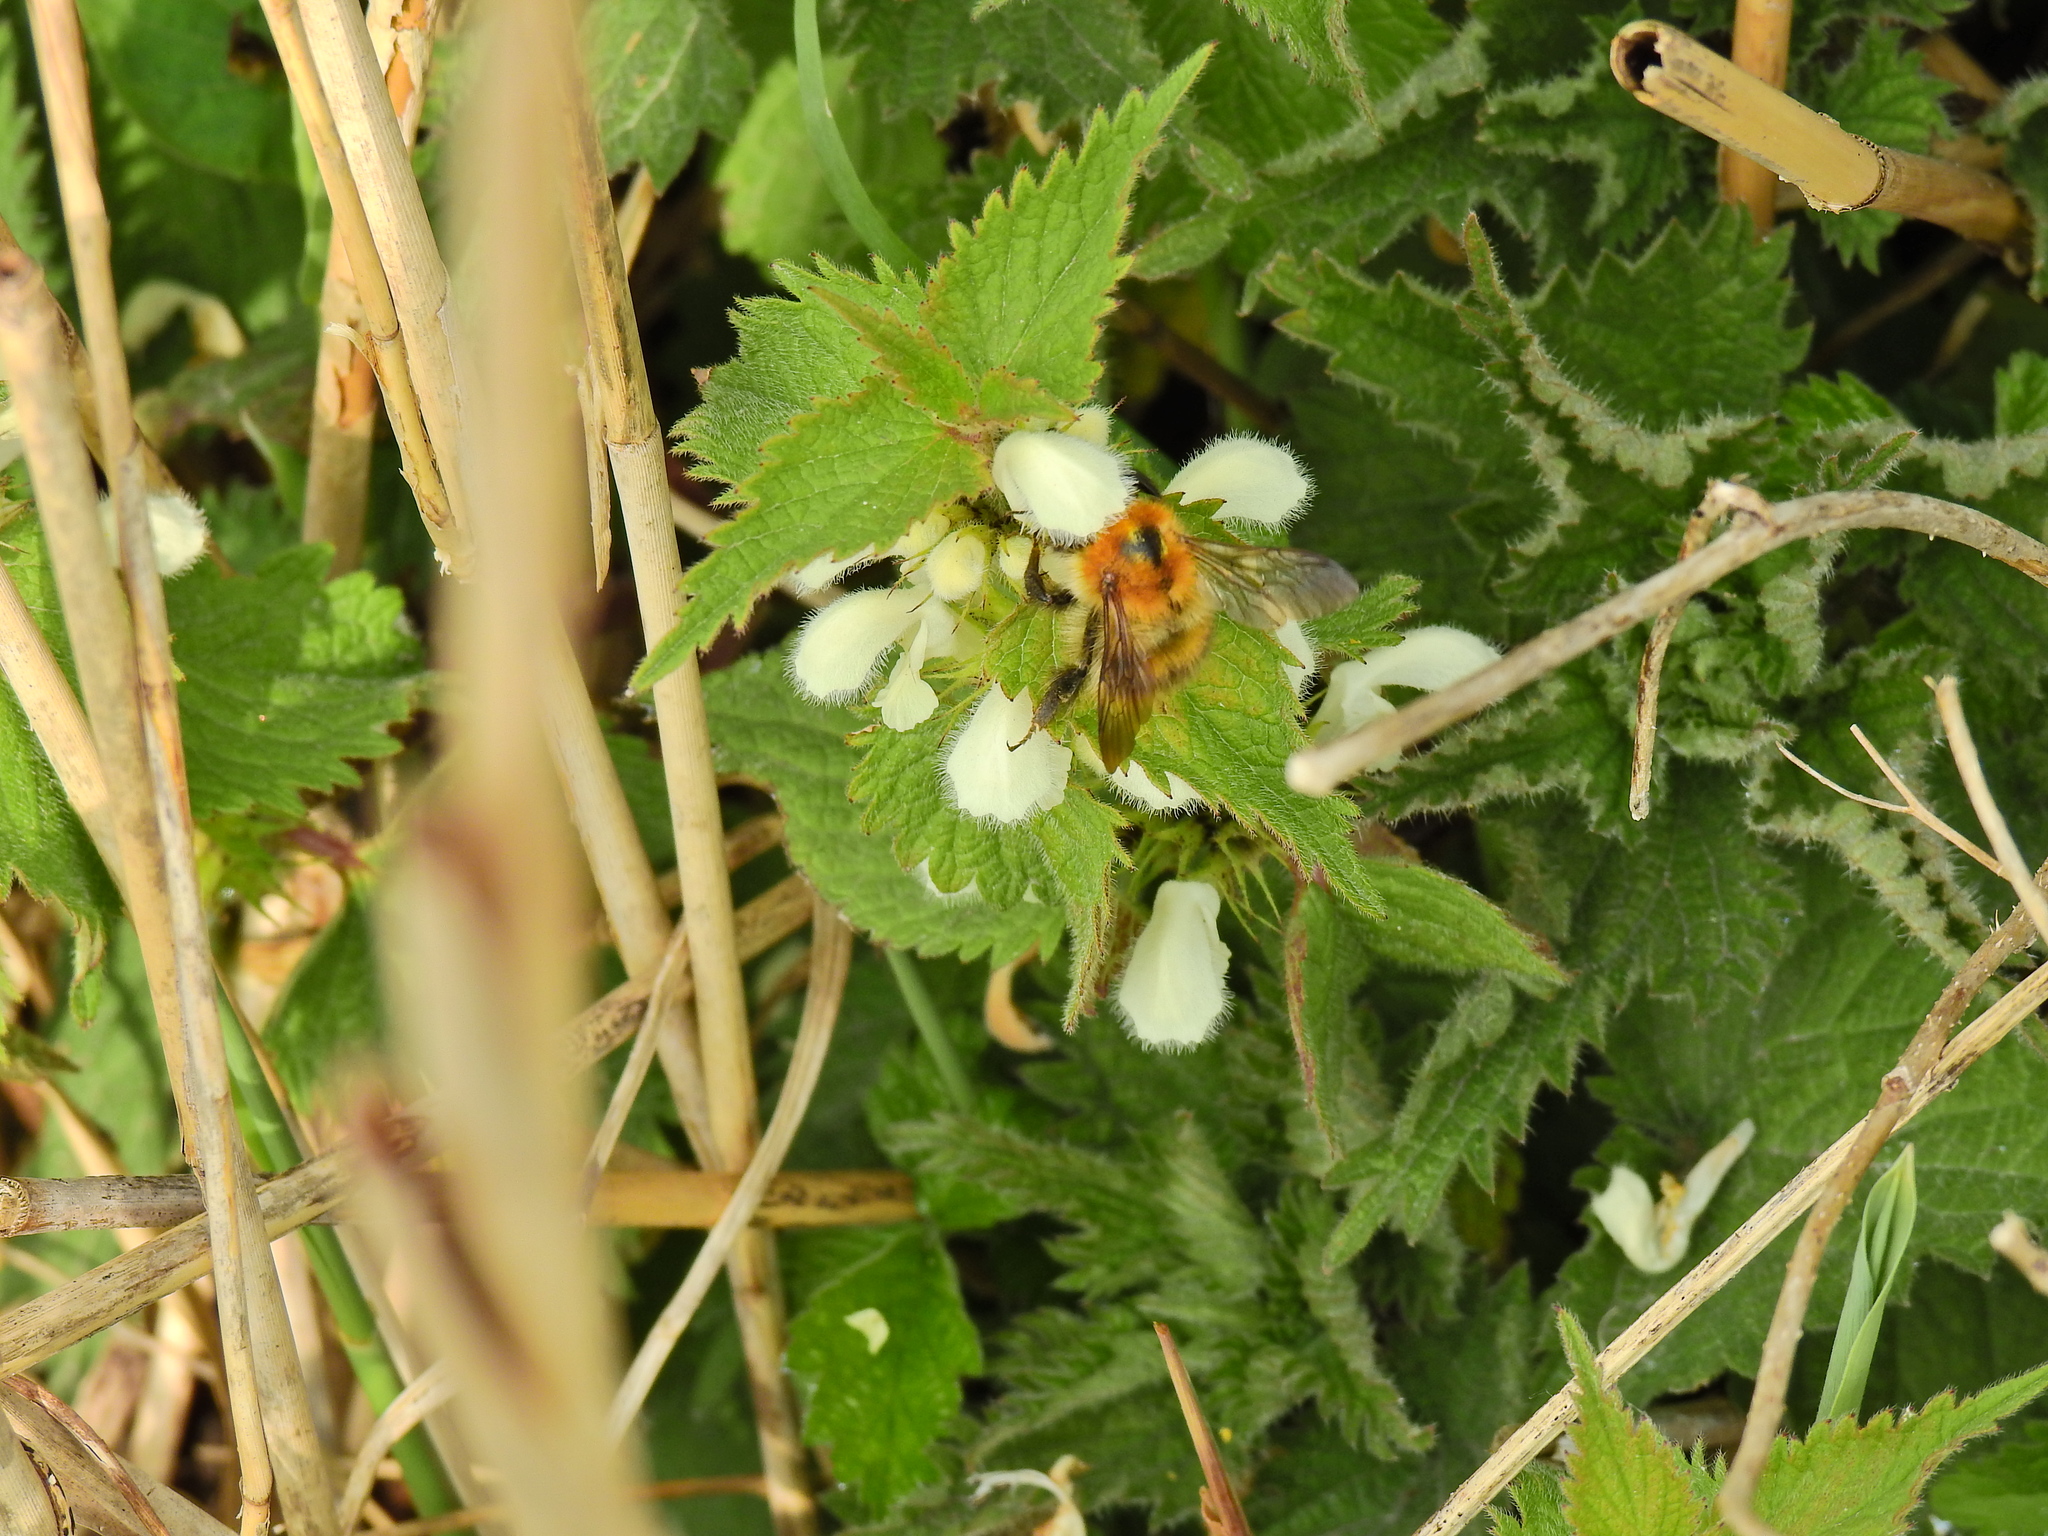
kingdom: Animalia
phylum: Arthropoda
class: Insecta
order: Hymenoptera
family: Apidae
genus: Bombus
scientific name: Bombus pascuorum
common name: Common carder bee
